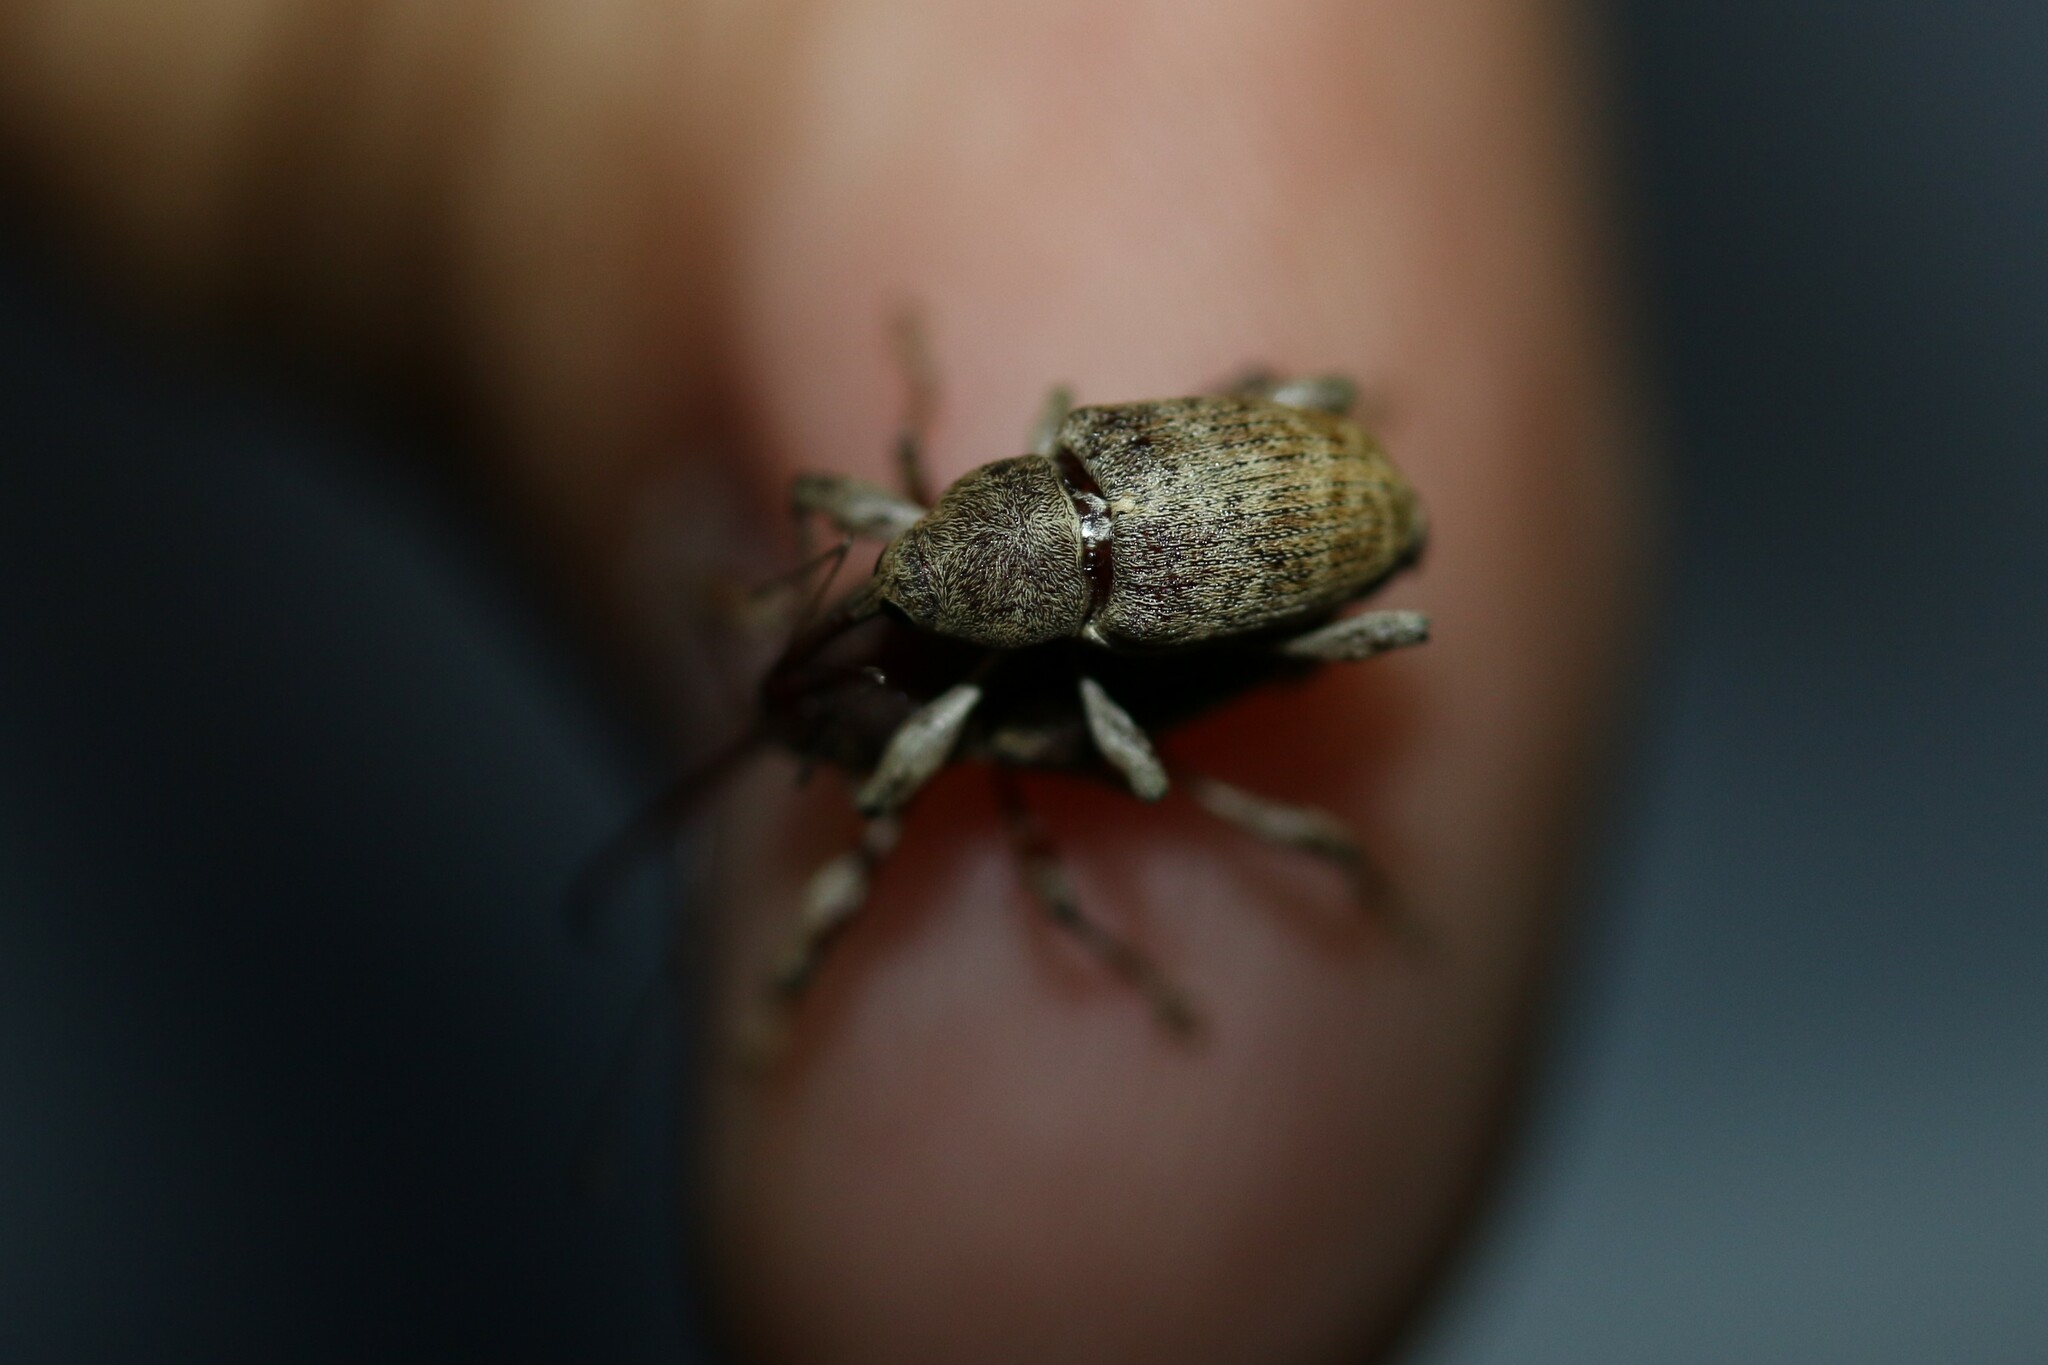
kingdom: Animalia
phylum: Arthropoda
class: Insecta
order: Coleoptera
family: Curculionidae
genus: Curculio
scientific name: Curculio elephas
